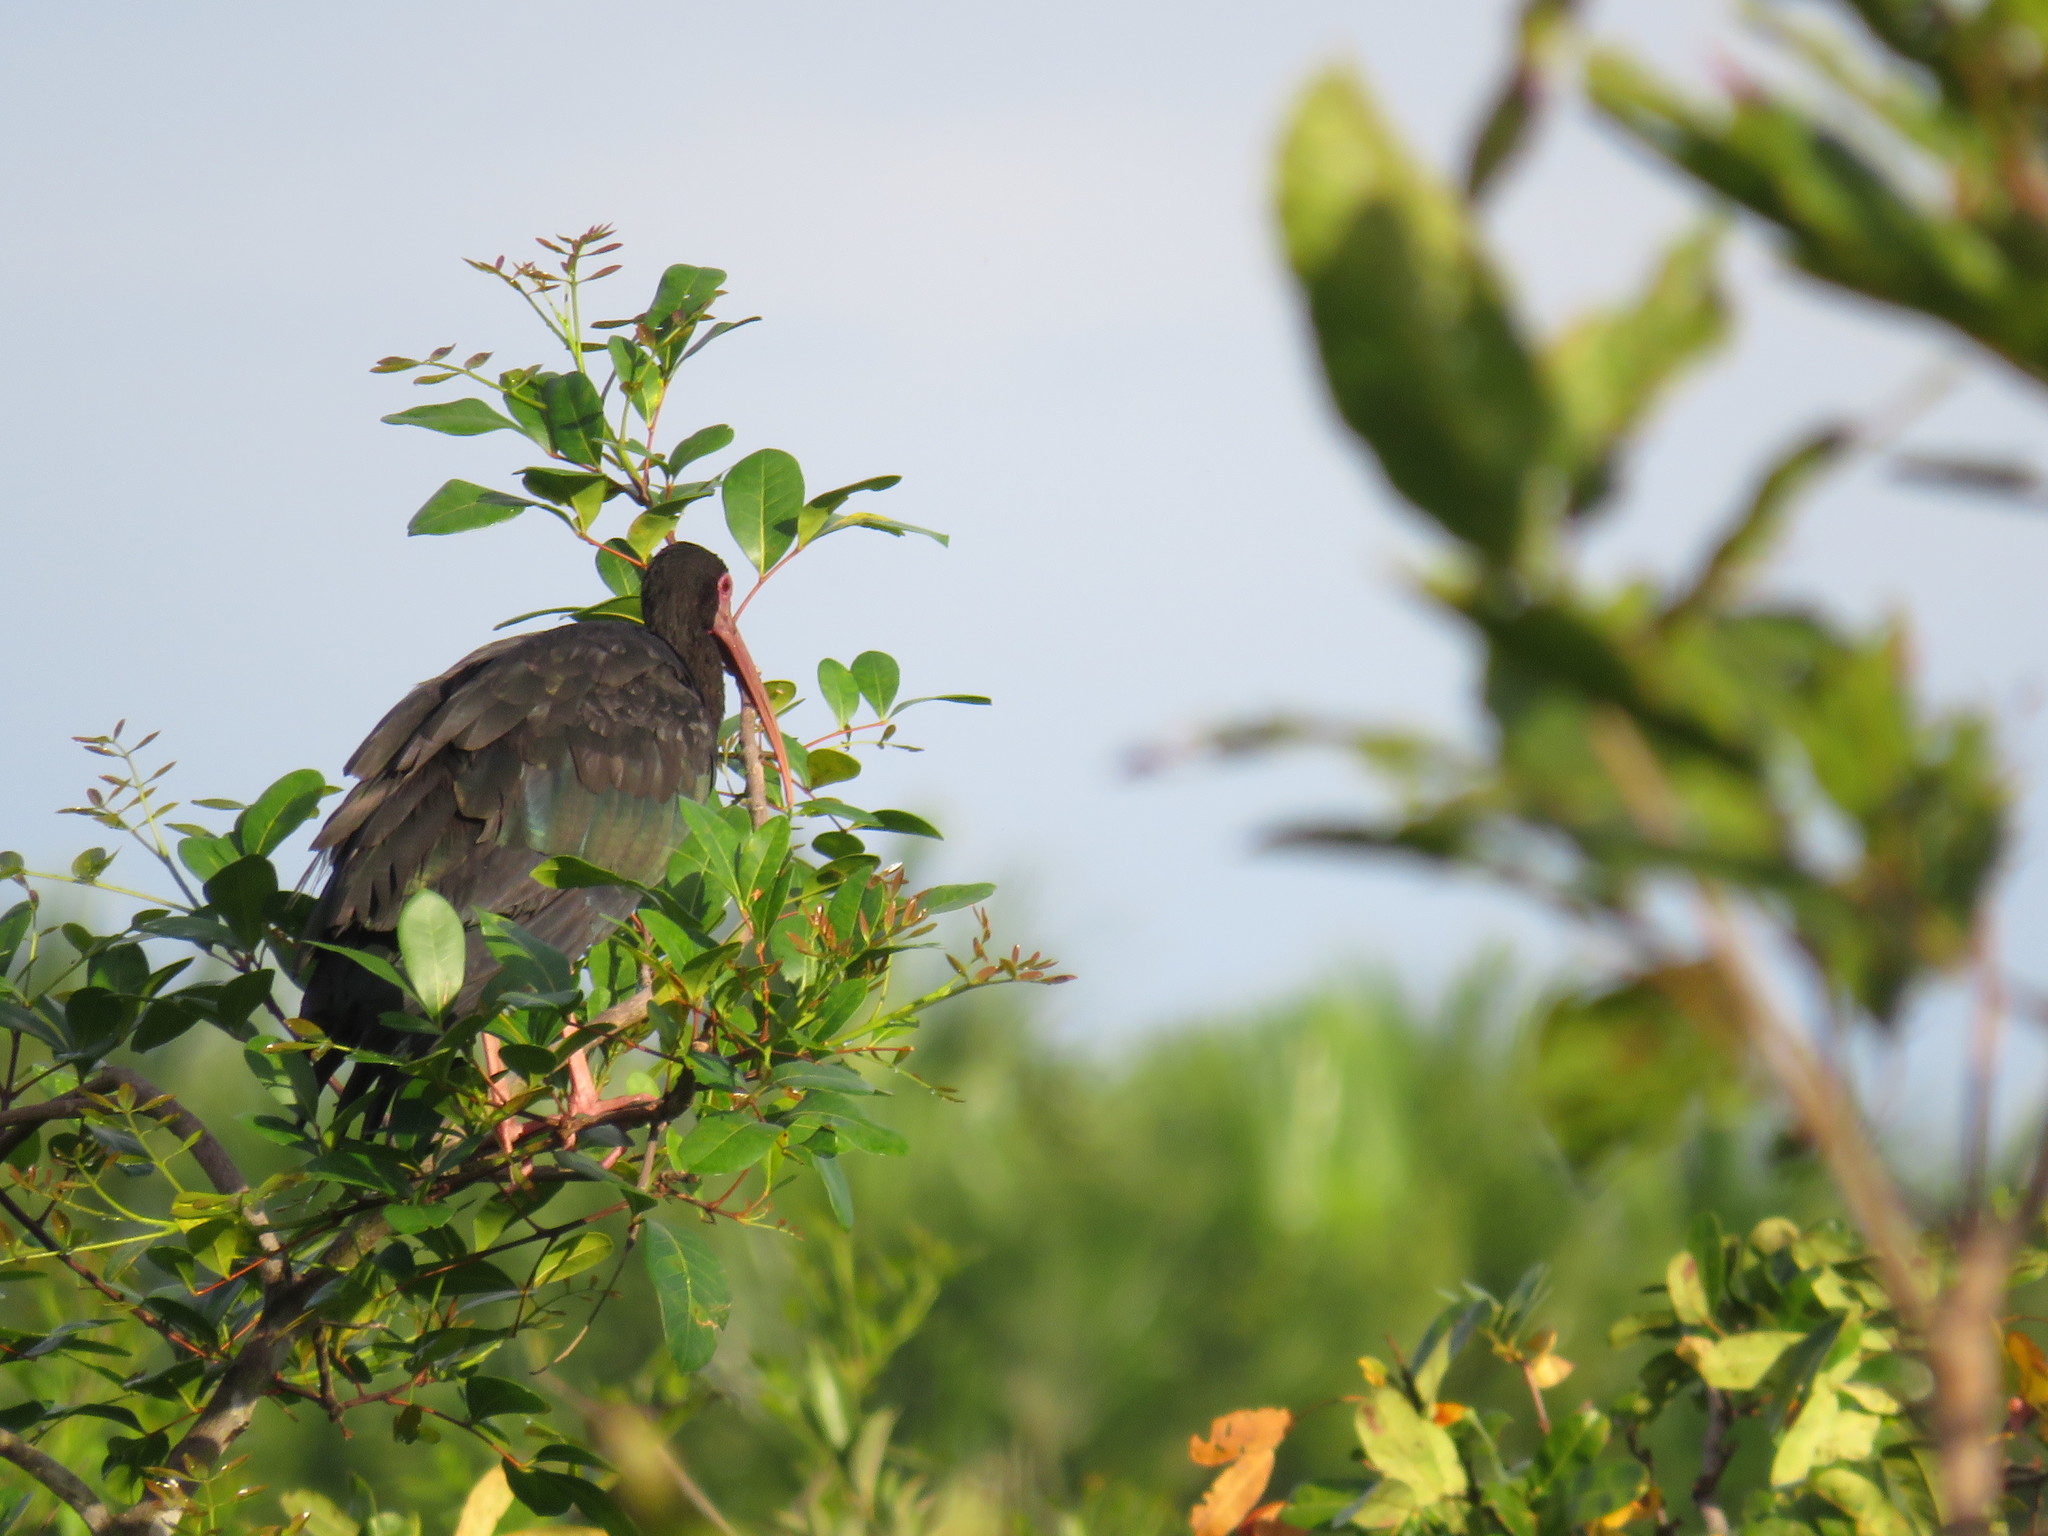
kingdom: Animalia
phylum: Chordata
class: Aves
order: Pelecaniformes
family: Threskiornithidae
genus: Phimosus
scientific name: Phimosus infuscatus
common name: Bare-faced ibis
